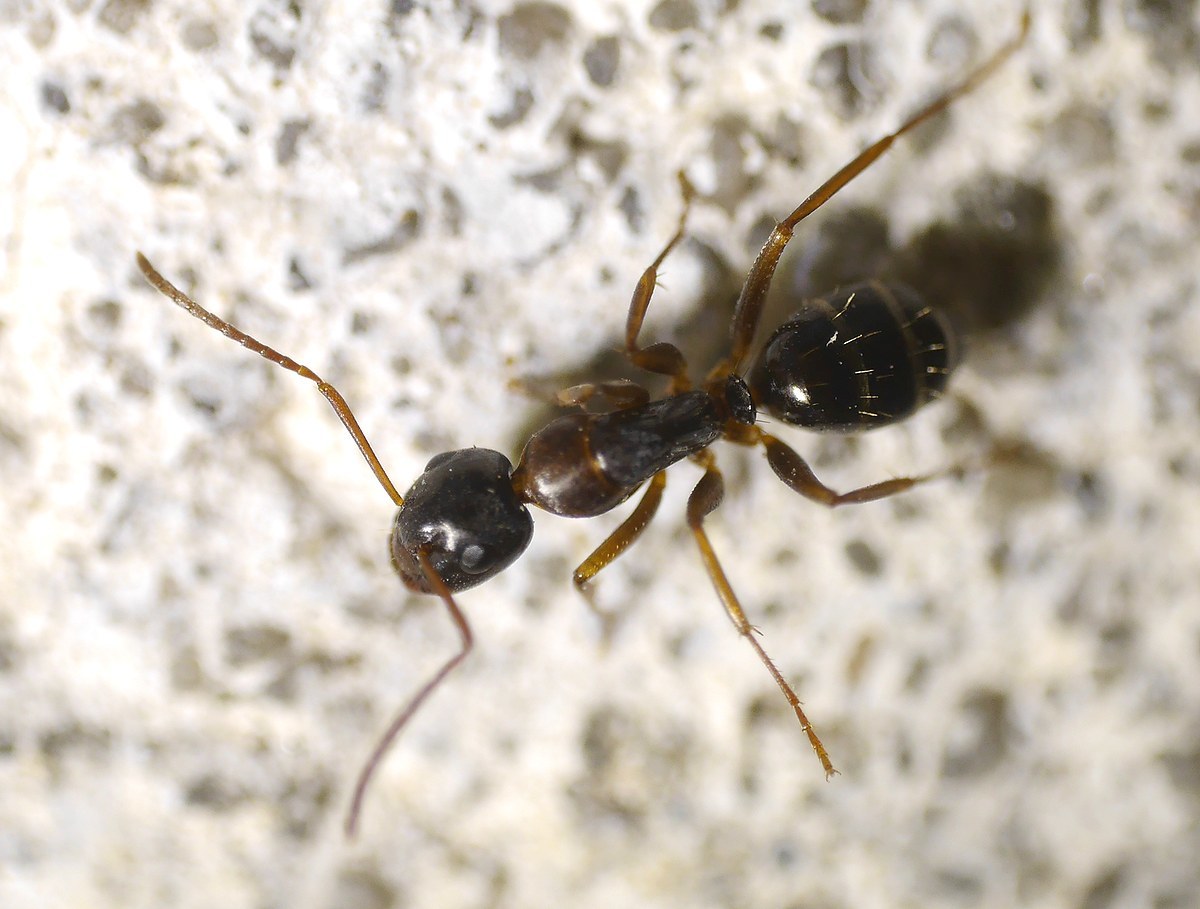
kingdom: Animalia
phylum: Arthropoda
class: Insecta
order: Hymenoptera
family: Formicidae
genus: Camponotus
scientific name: Camponotus fallax
